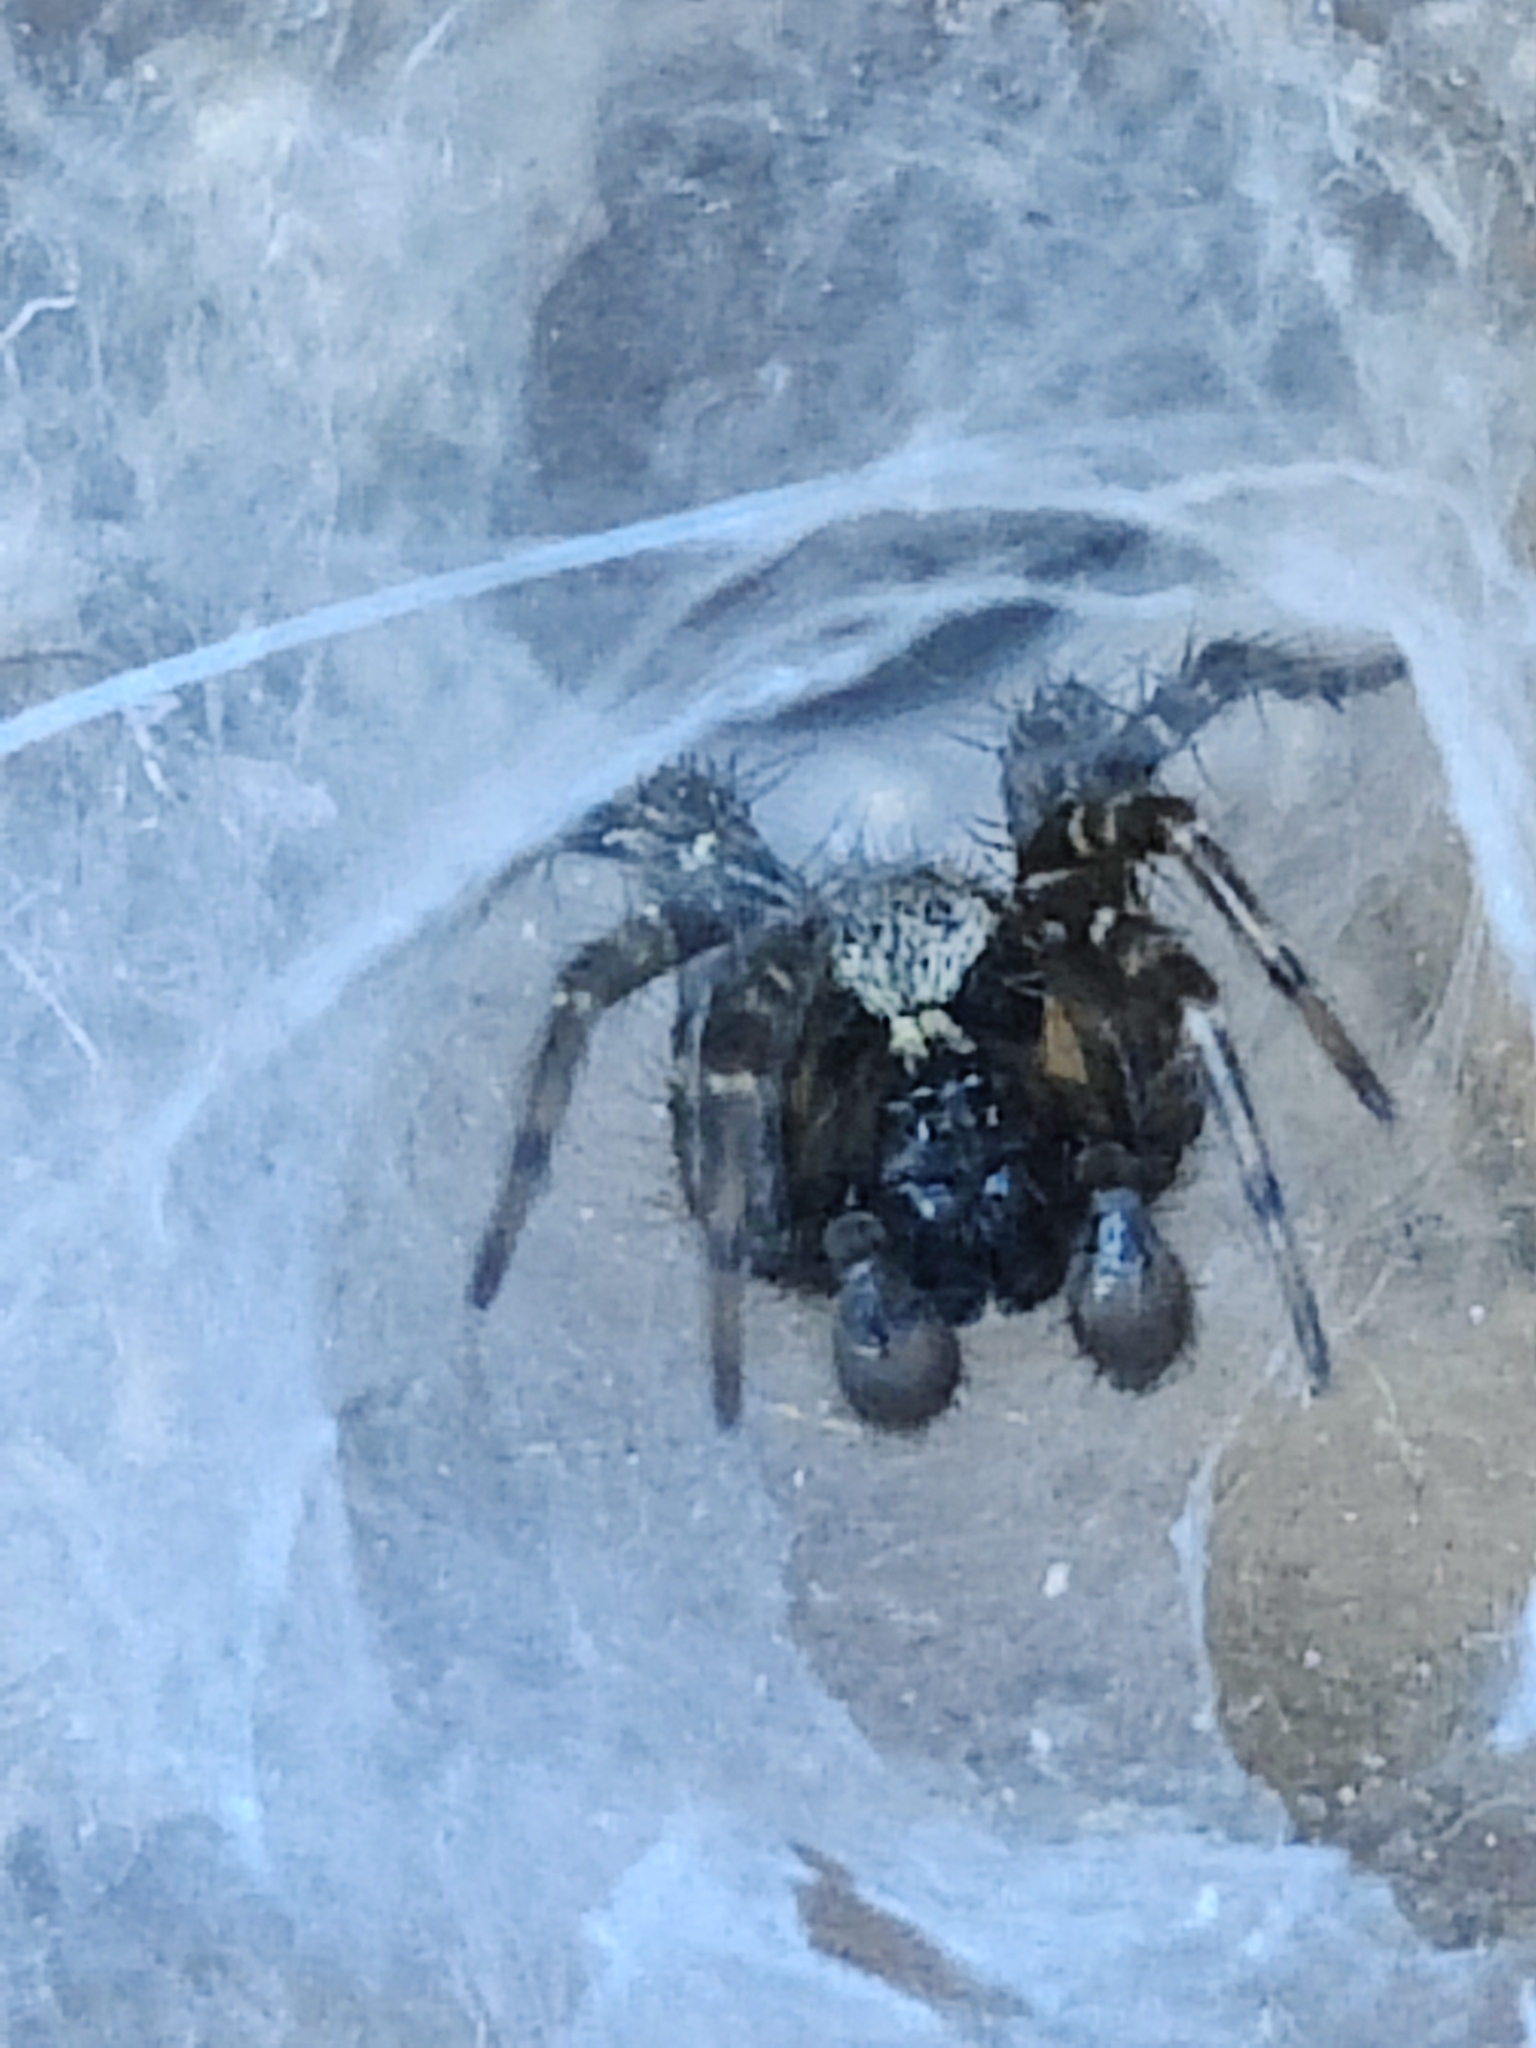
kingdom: Animalia
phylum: Arthropoda
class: Arachnida
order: Araneae
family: Agelenidae
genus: Textrix
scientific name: Textrix denticulata
